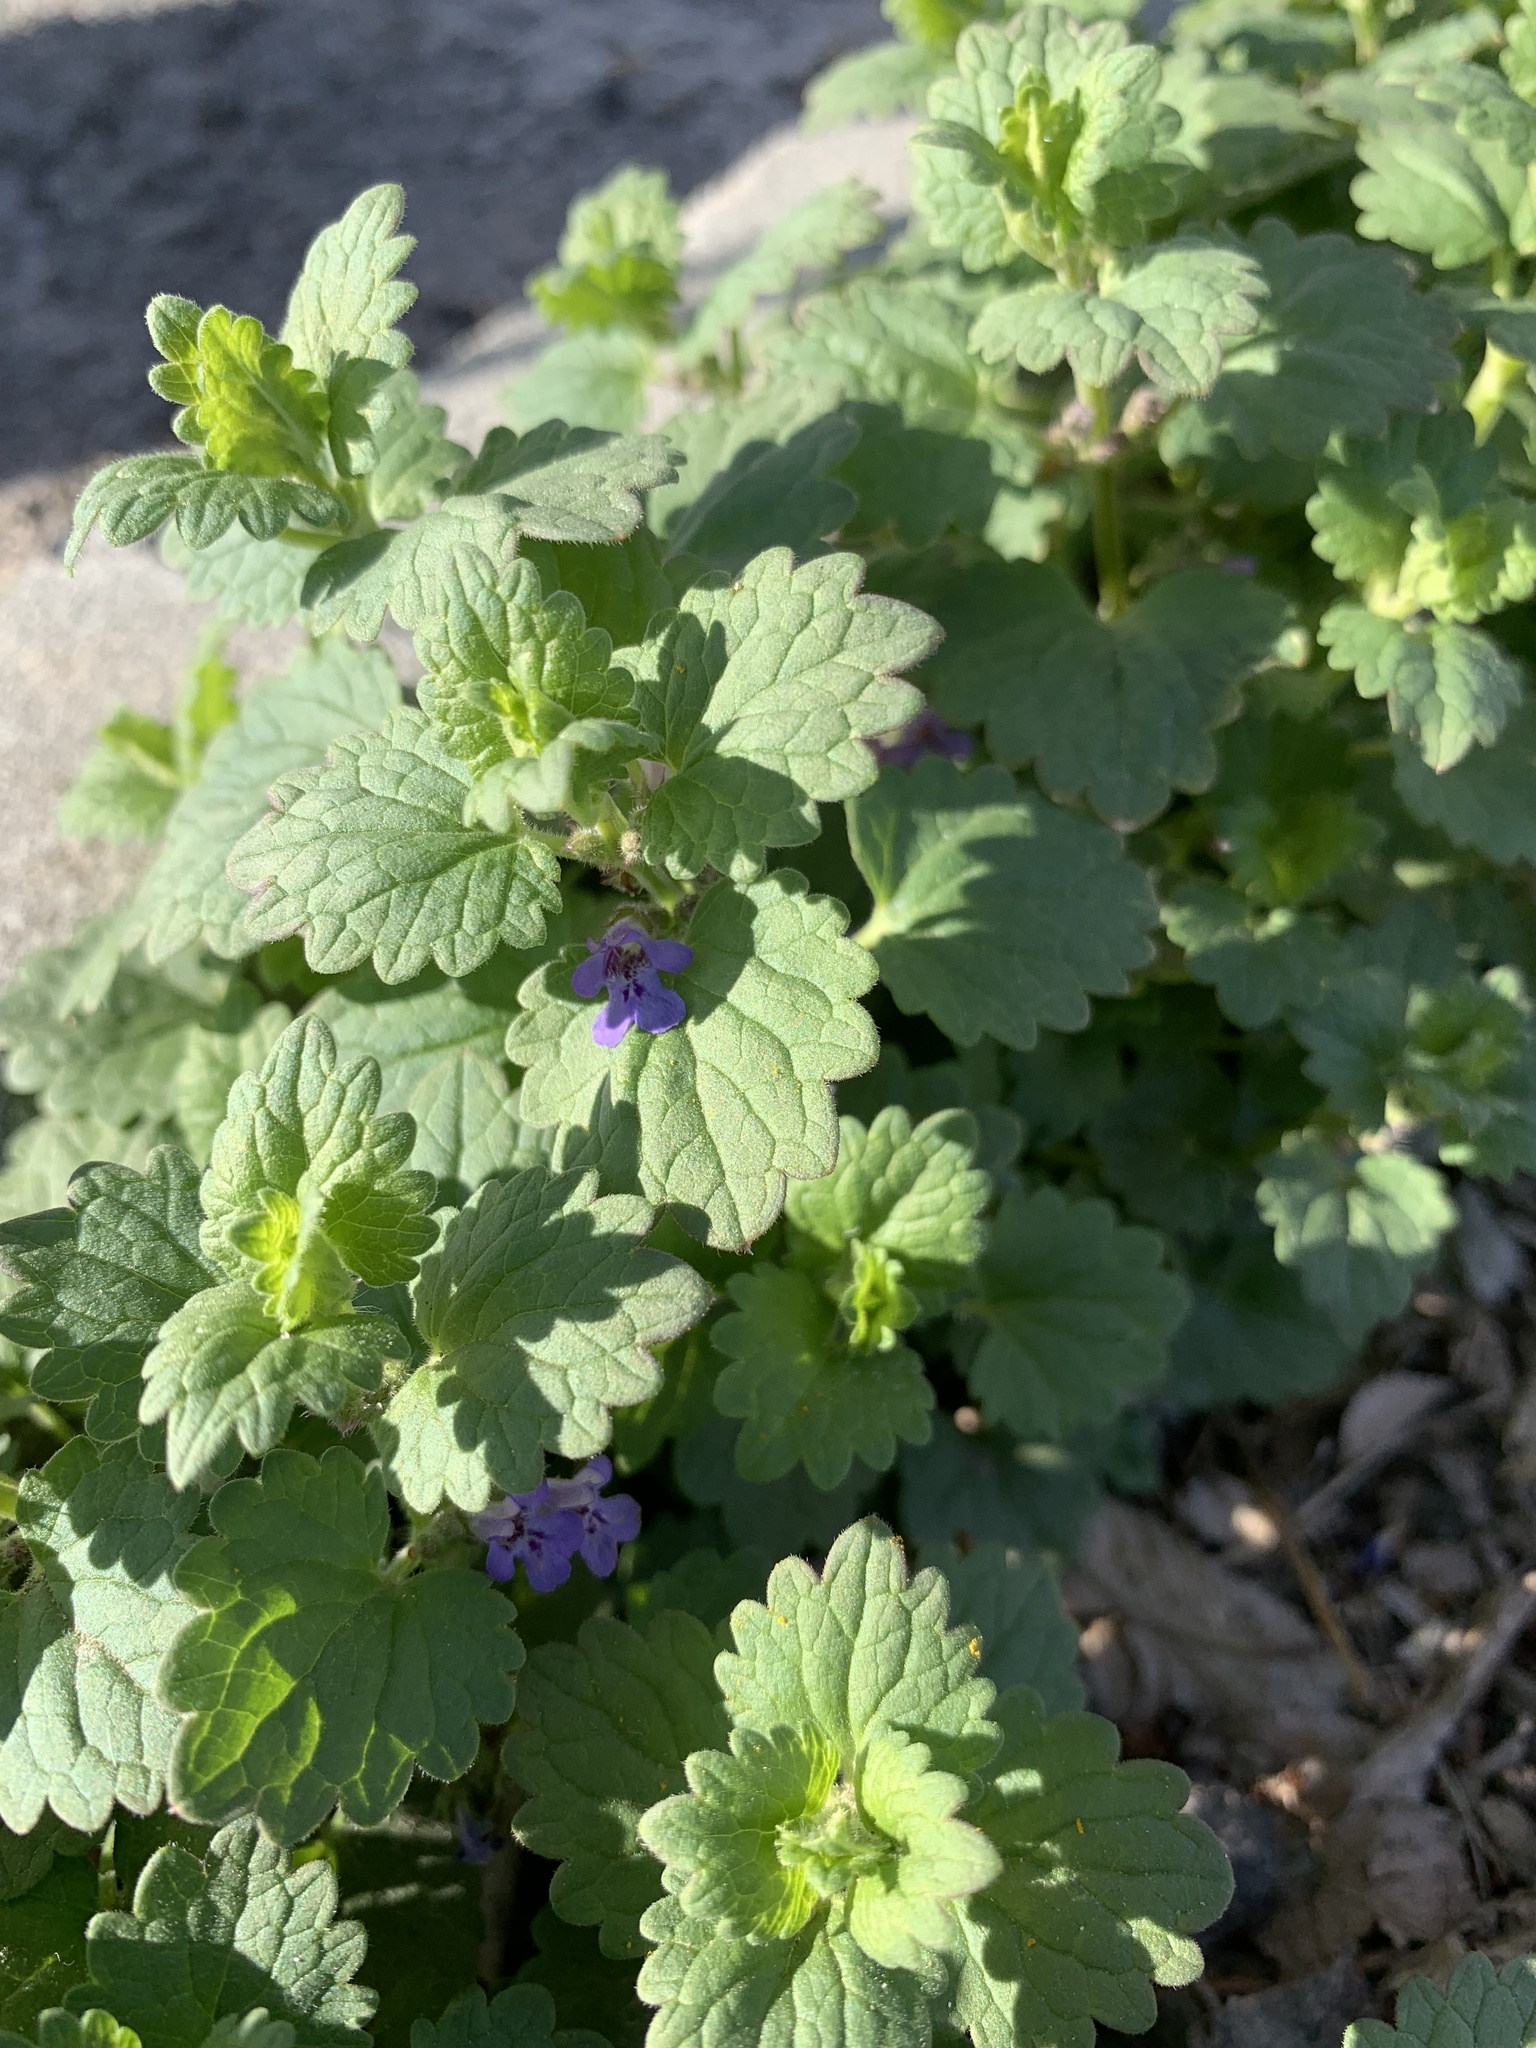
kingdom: Plantae
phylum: Tracheophyta
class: Magnoliopsida
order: Lamiales
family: Lamiaceae
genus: Glechoma
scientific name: Glechoma hederacea
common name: Ground ivy
